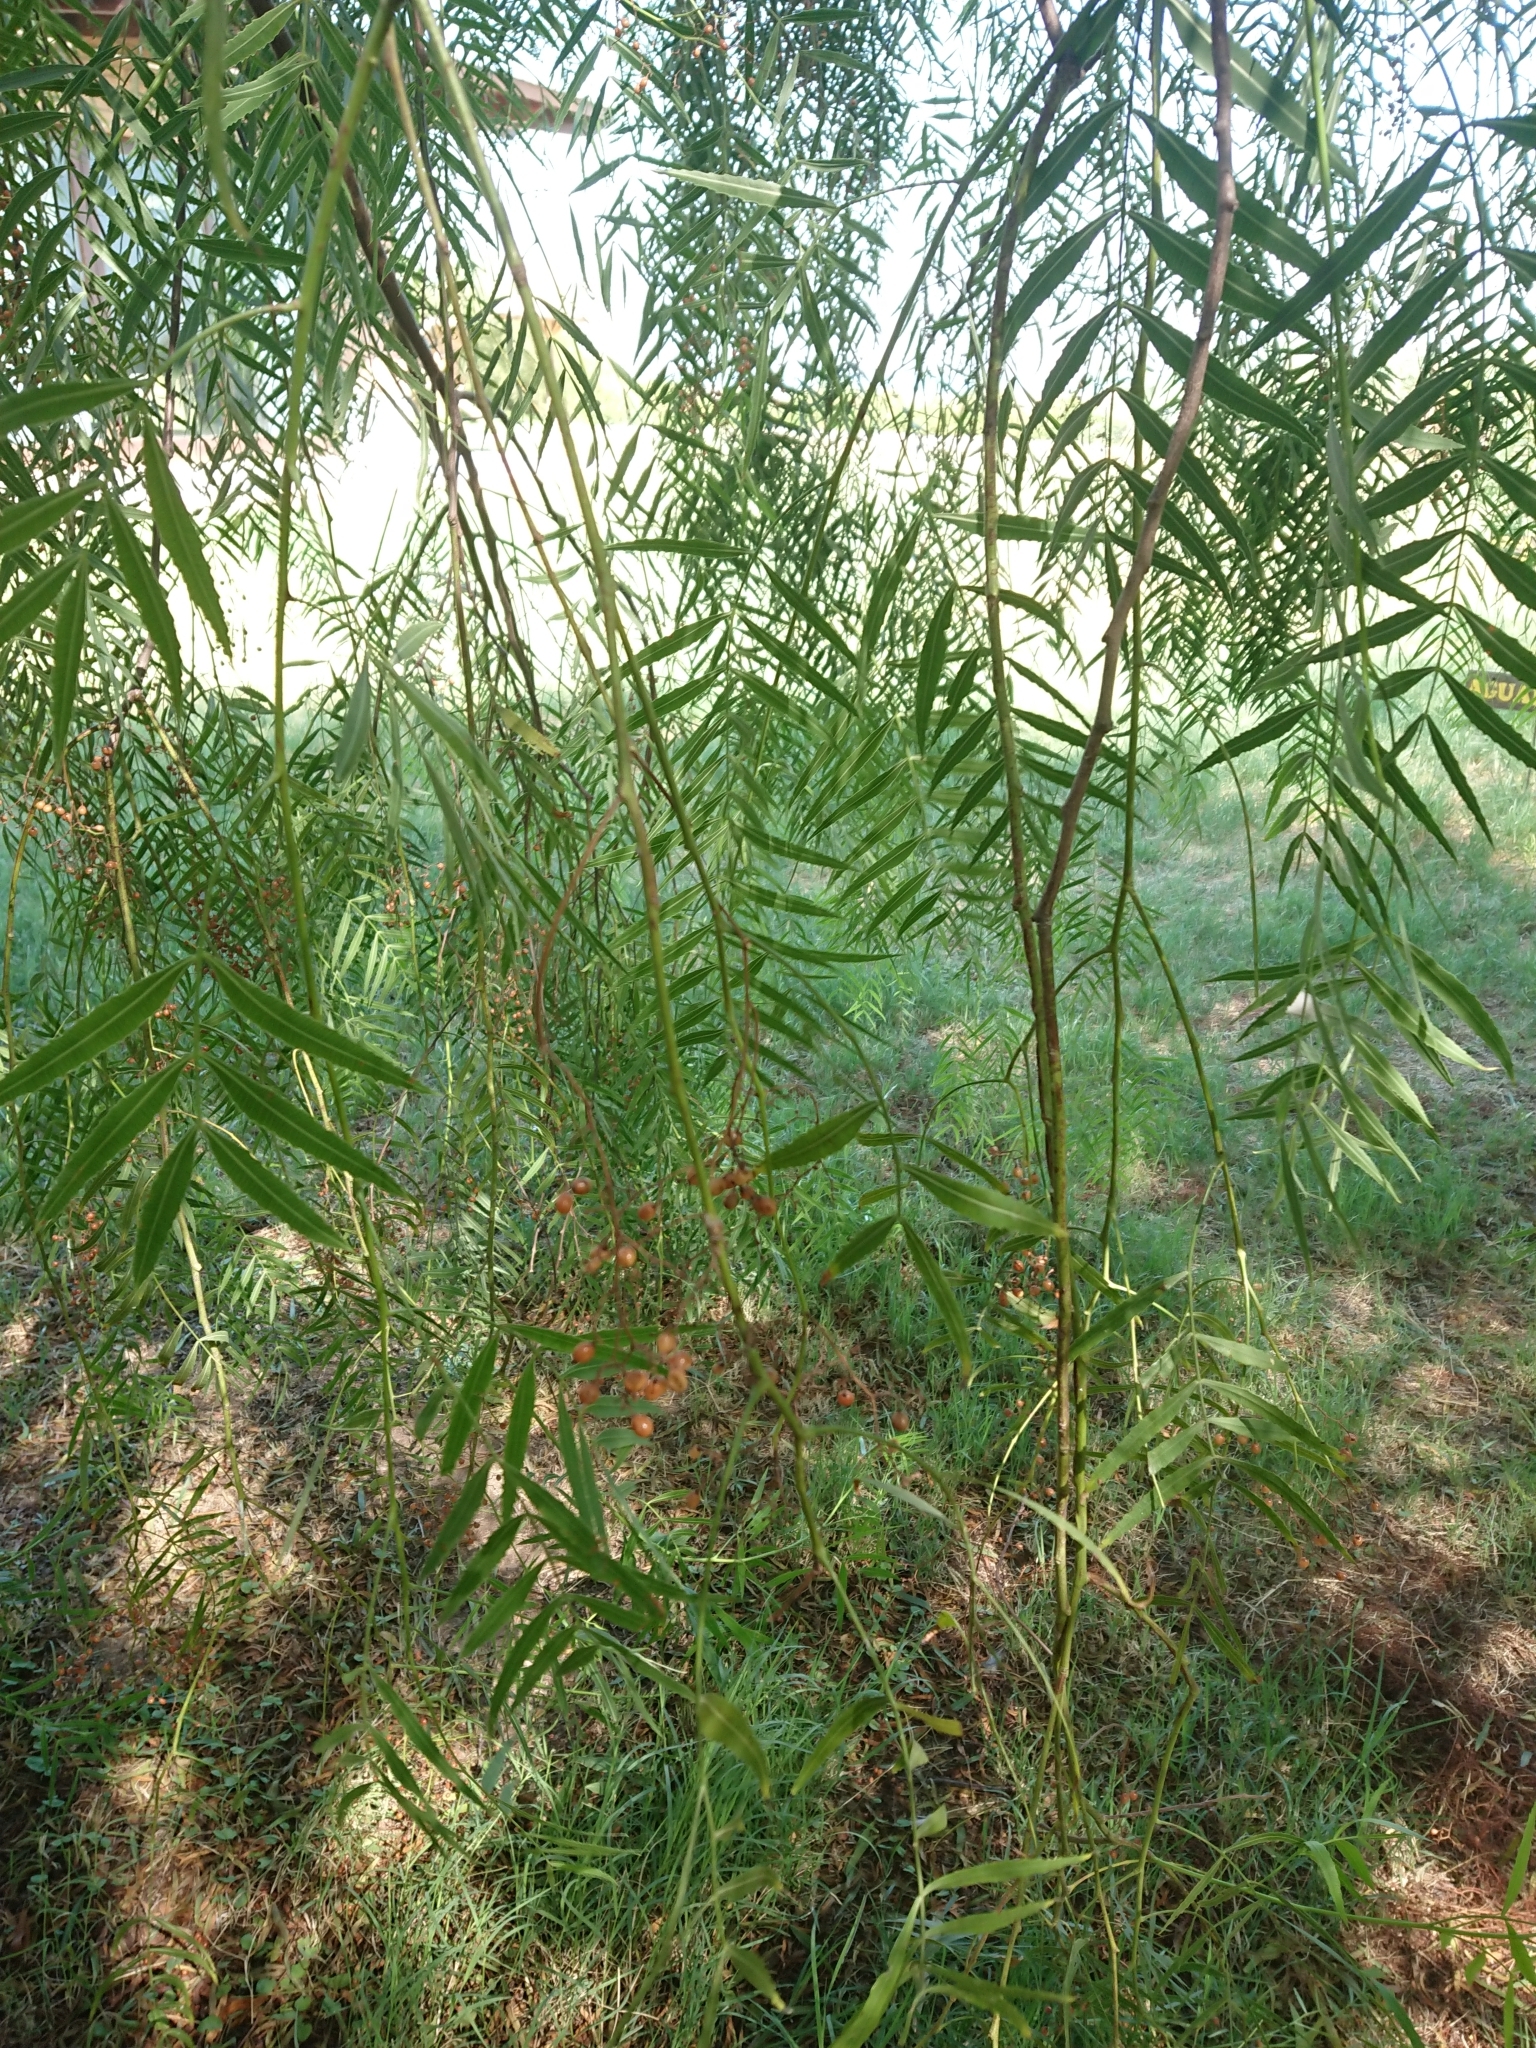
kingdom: Plantae
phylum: Tracheophyta
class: Magnoliopsida
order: Sapindales
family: Anacardiaceae
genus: Schinus
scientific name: Schinus molle
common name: Peruvian peppertree
